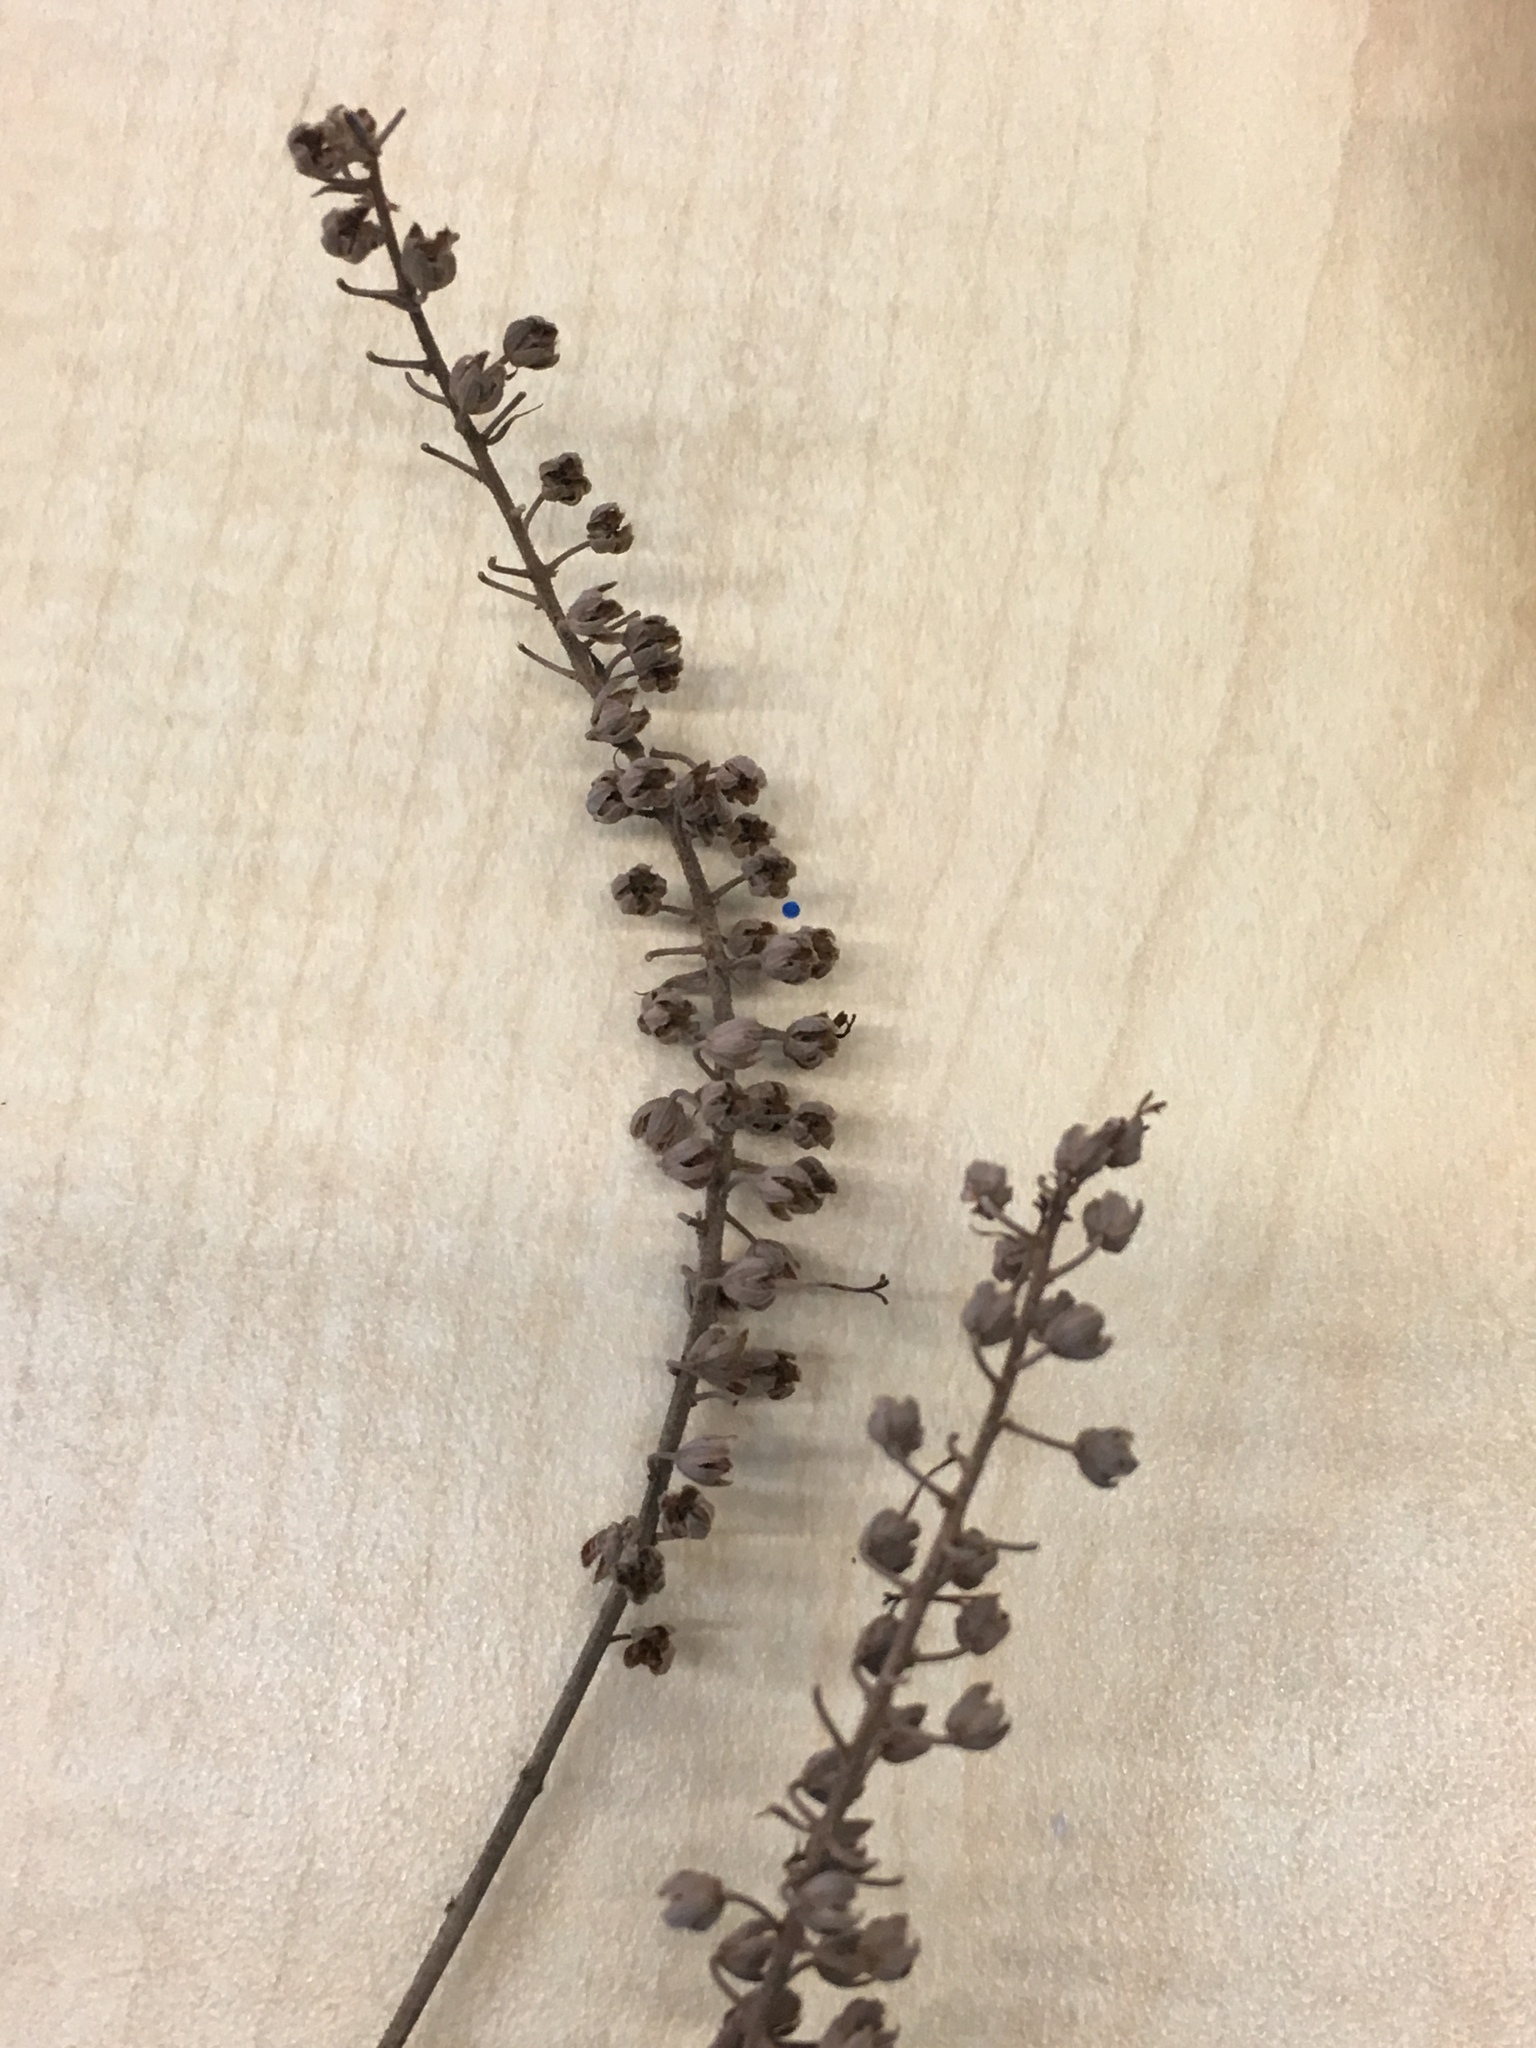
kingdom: Plantae
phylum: Tracheophyta
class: Magnoliopsida
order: Ericales
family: Clethraceae
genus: Clethra
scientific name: Clethra alnifolia
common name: Sweet pepperbush
